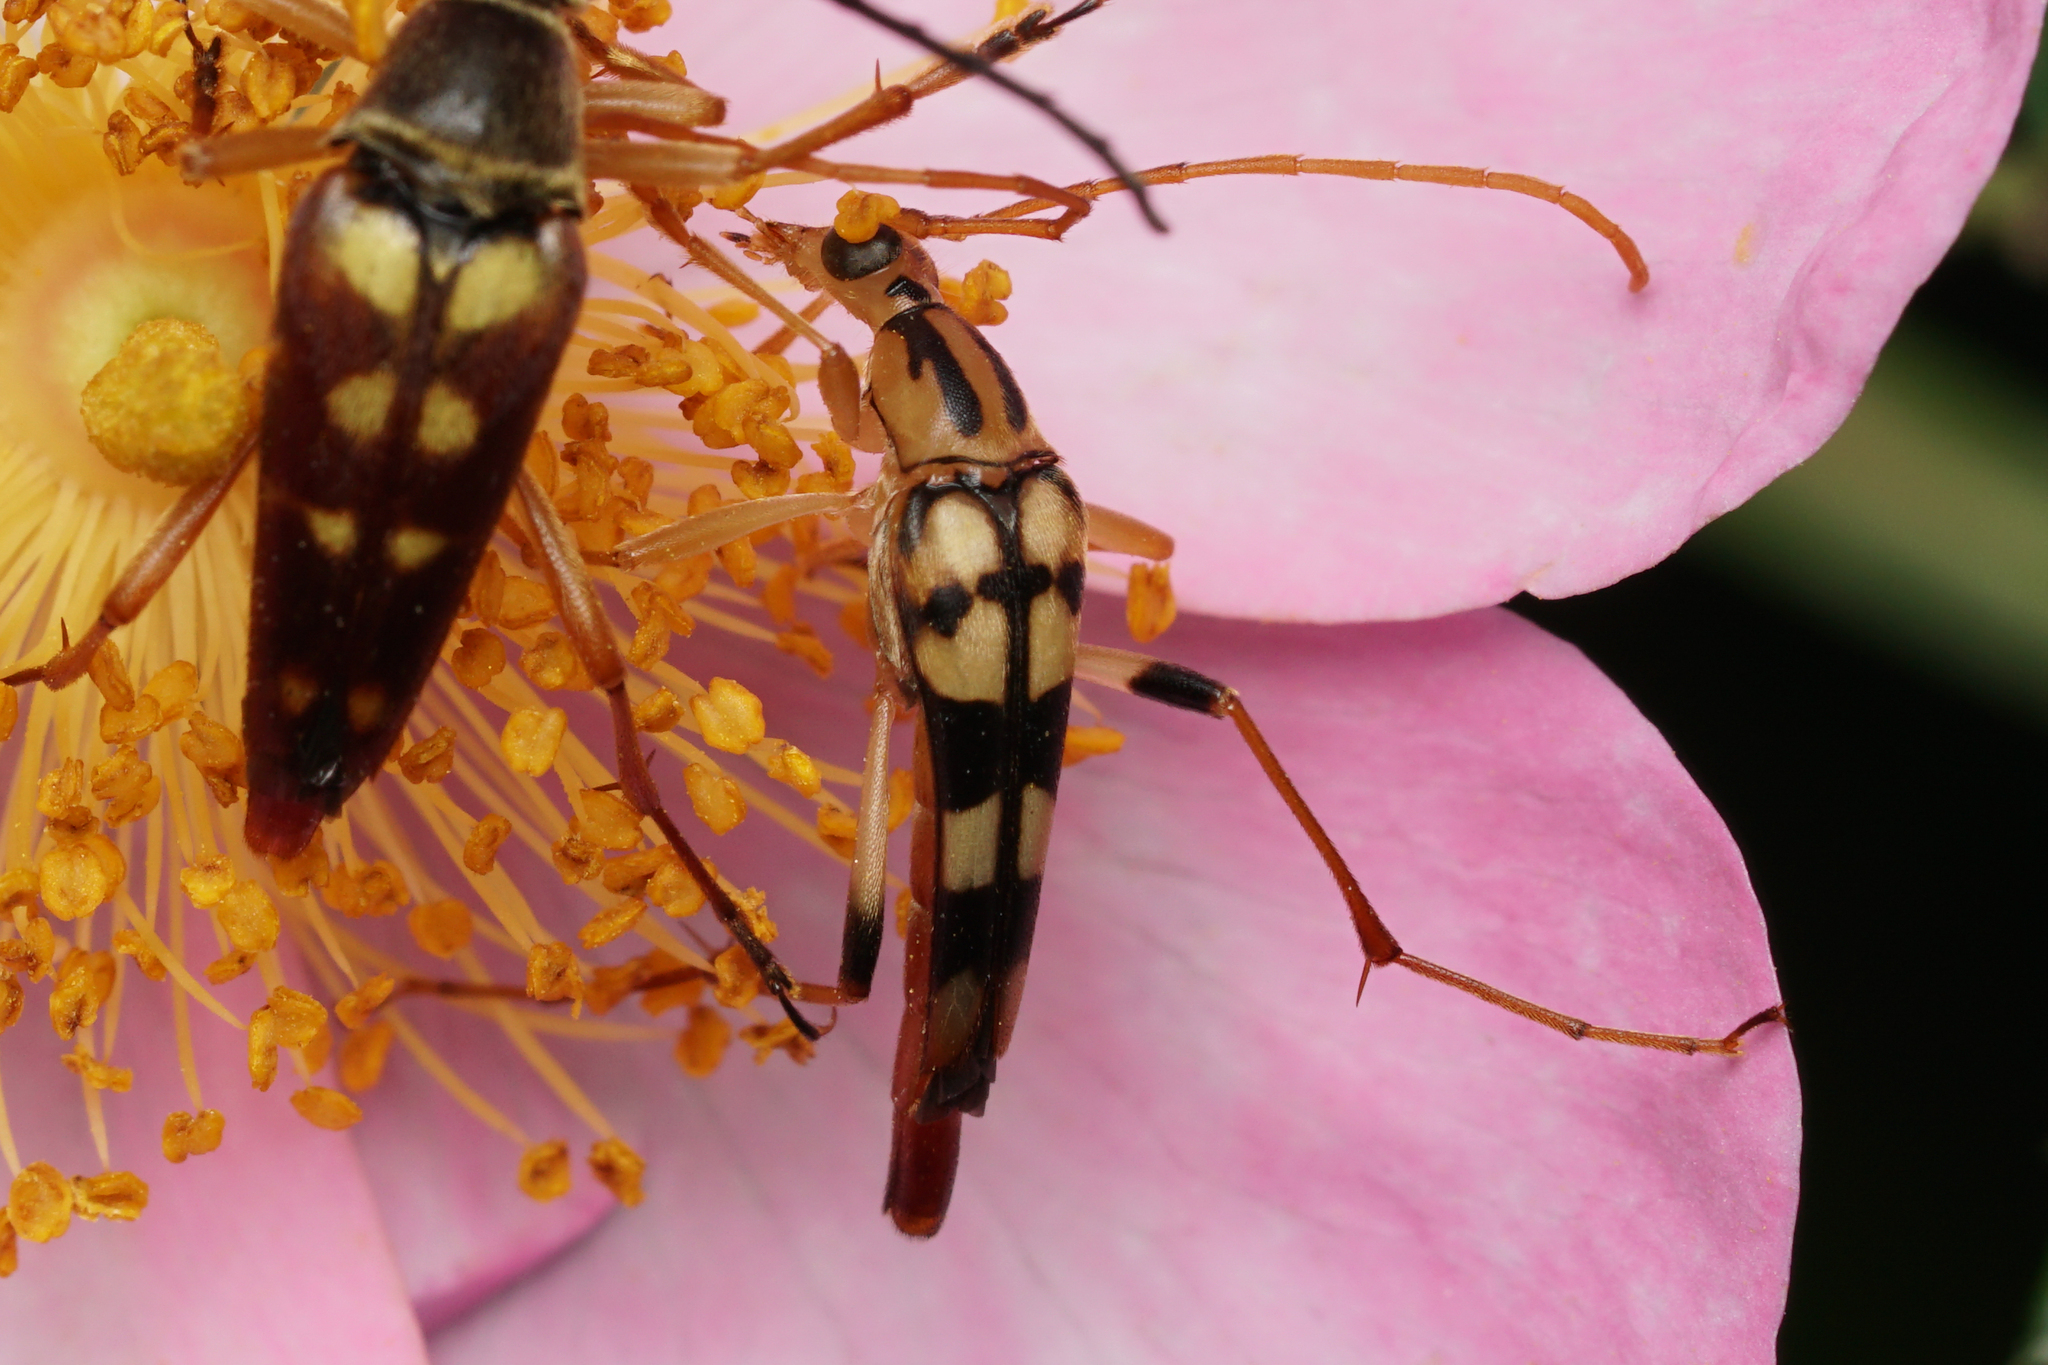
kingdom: Animalia
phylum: Arthropoda
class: Insecta
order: Coleoptera
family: Cerambycidae
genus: Strangalia
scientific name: Strangalia luteicornis
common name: Yellow-horned flower longhorn beetle
